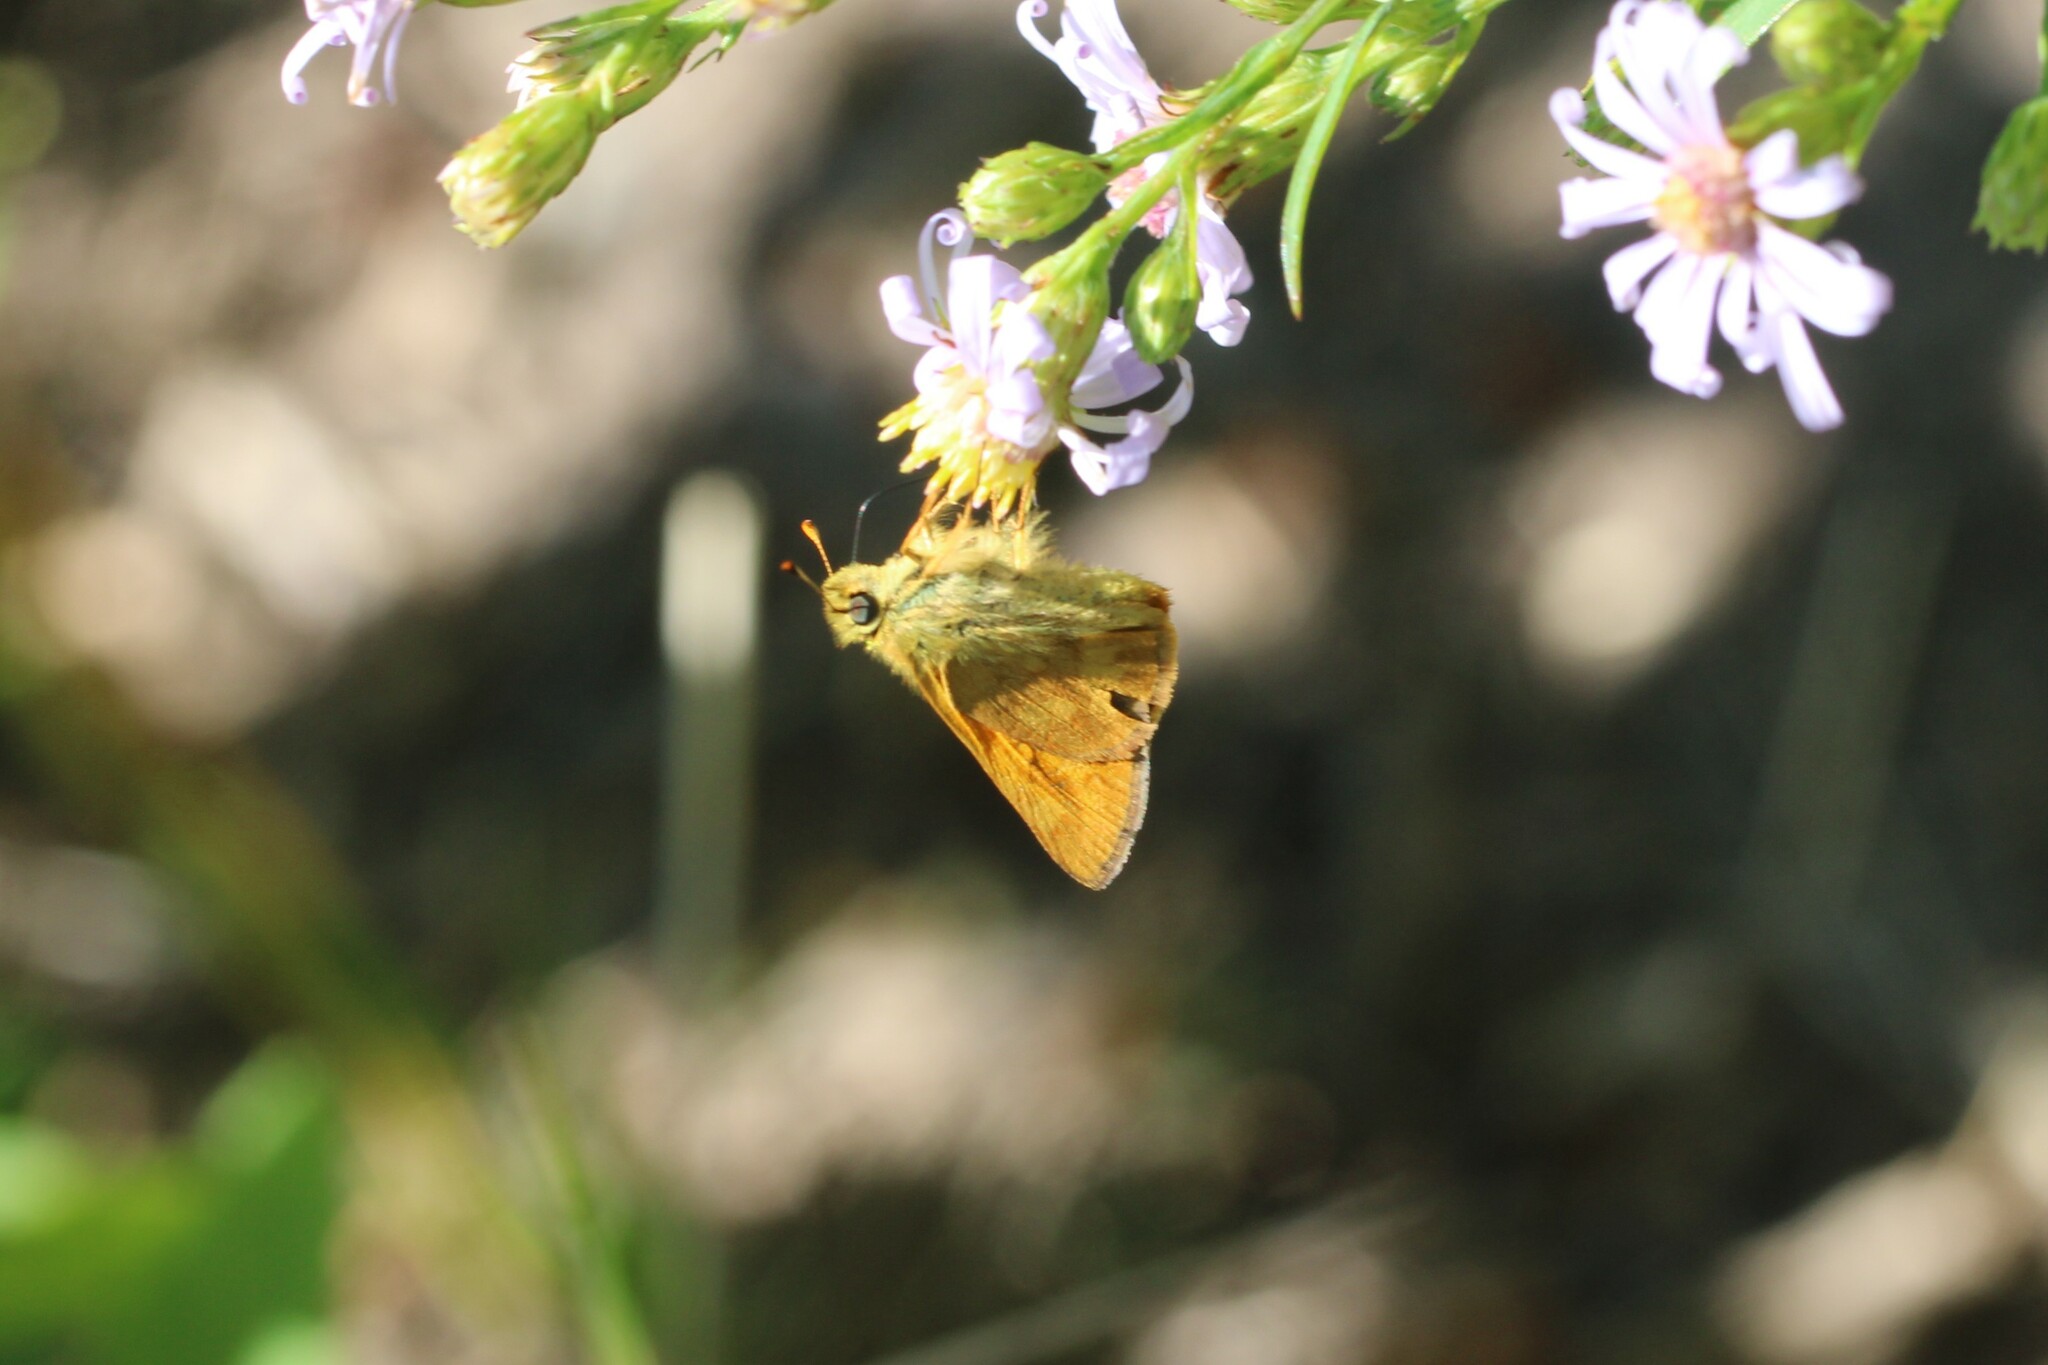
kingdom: Animalia
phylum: Arthropoda
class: Insecta
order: Lepidoptera
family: Hesperiidae
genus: Ochlodes
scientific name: Ochlodes sylvanoides
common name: Woodland skipper
